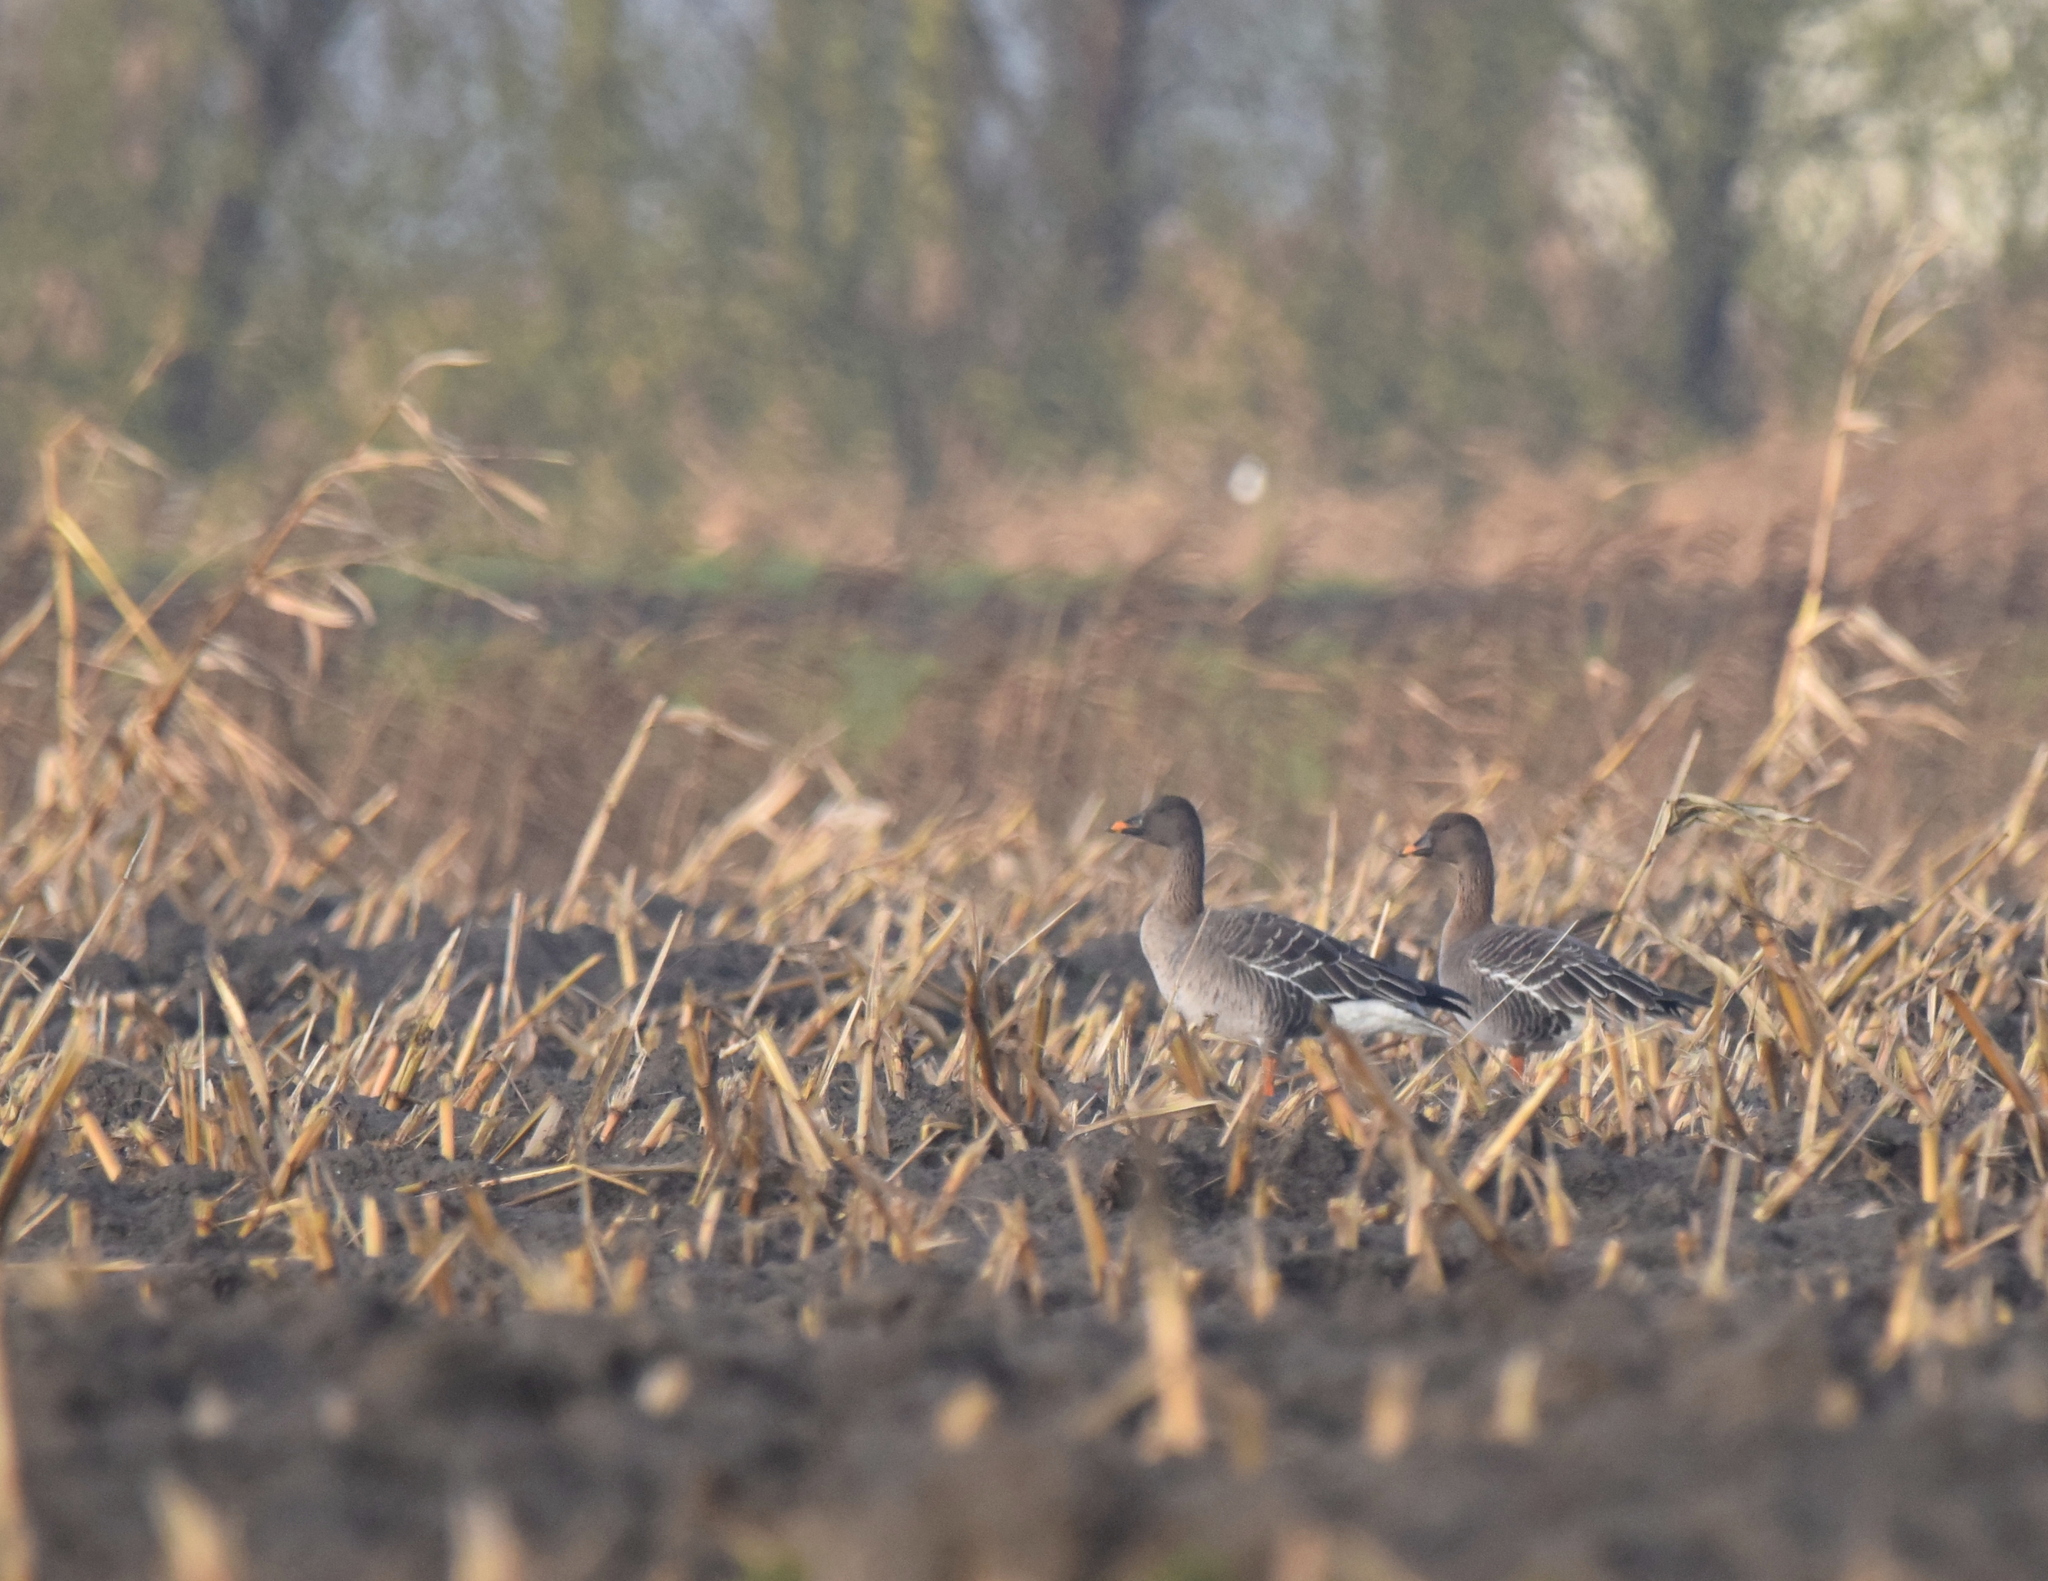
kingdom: Animalia
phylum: Chordata
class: Aves
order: Anseriformes
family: Anatidae
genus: Anser
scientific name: Anser serrirostris
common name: Tundra bean goose
